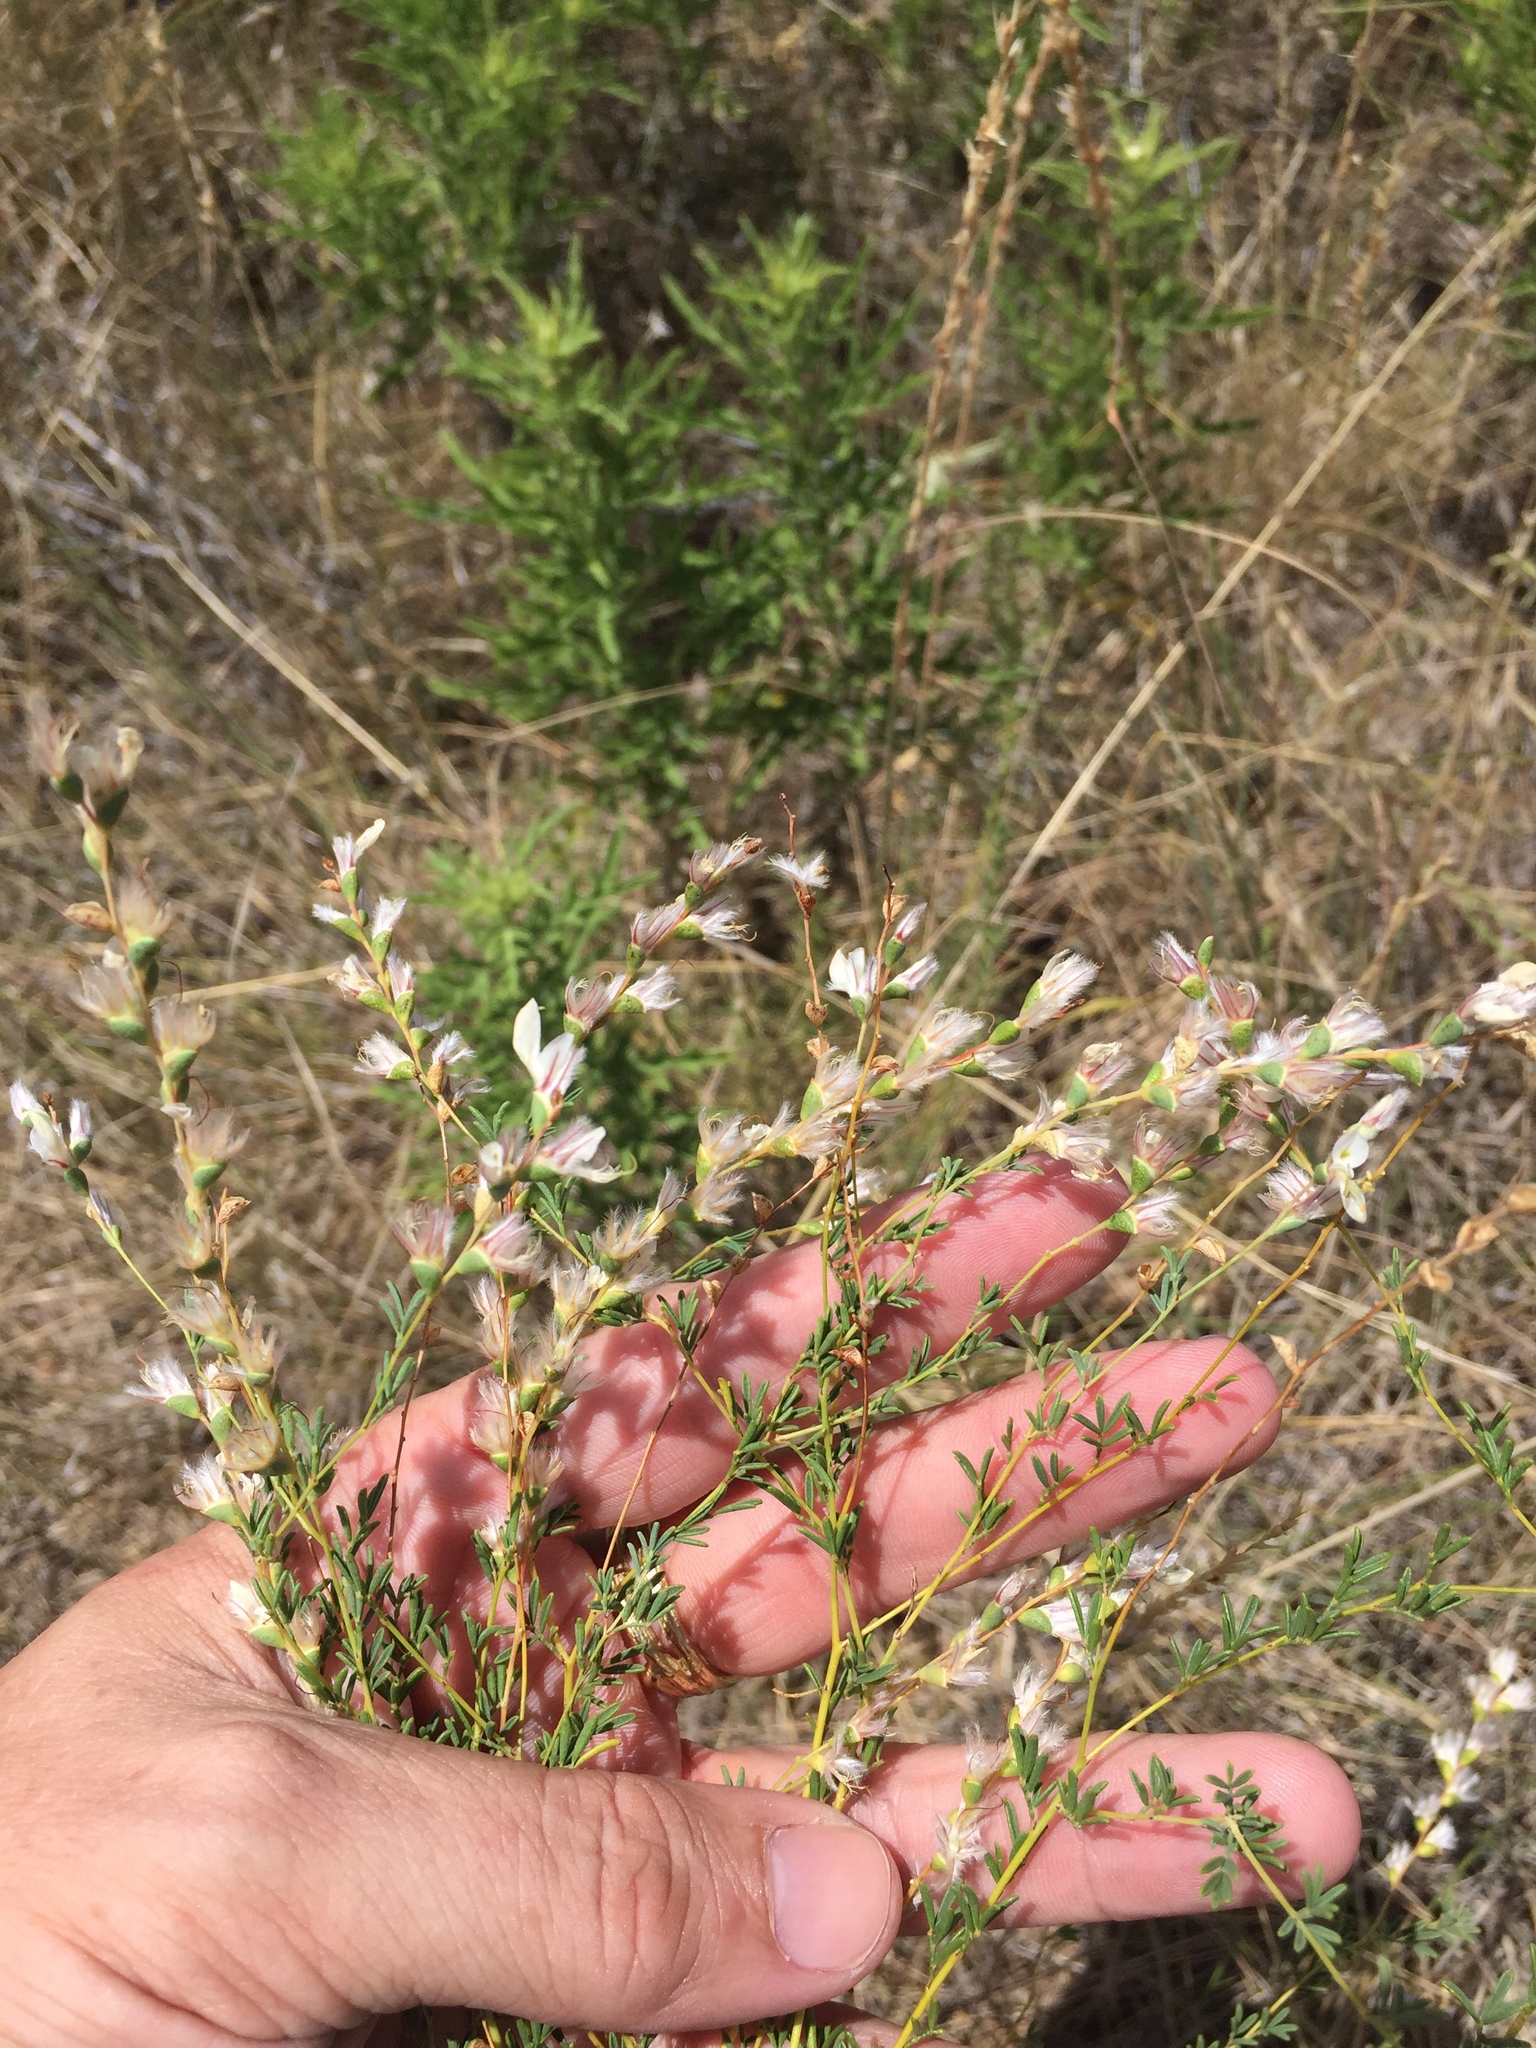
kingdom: Plantae
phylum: Tracheophyta
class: Magnoliopsida
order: Fabales
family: Fabaceae
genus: Dalea
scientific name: Dalea enneandra
